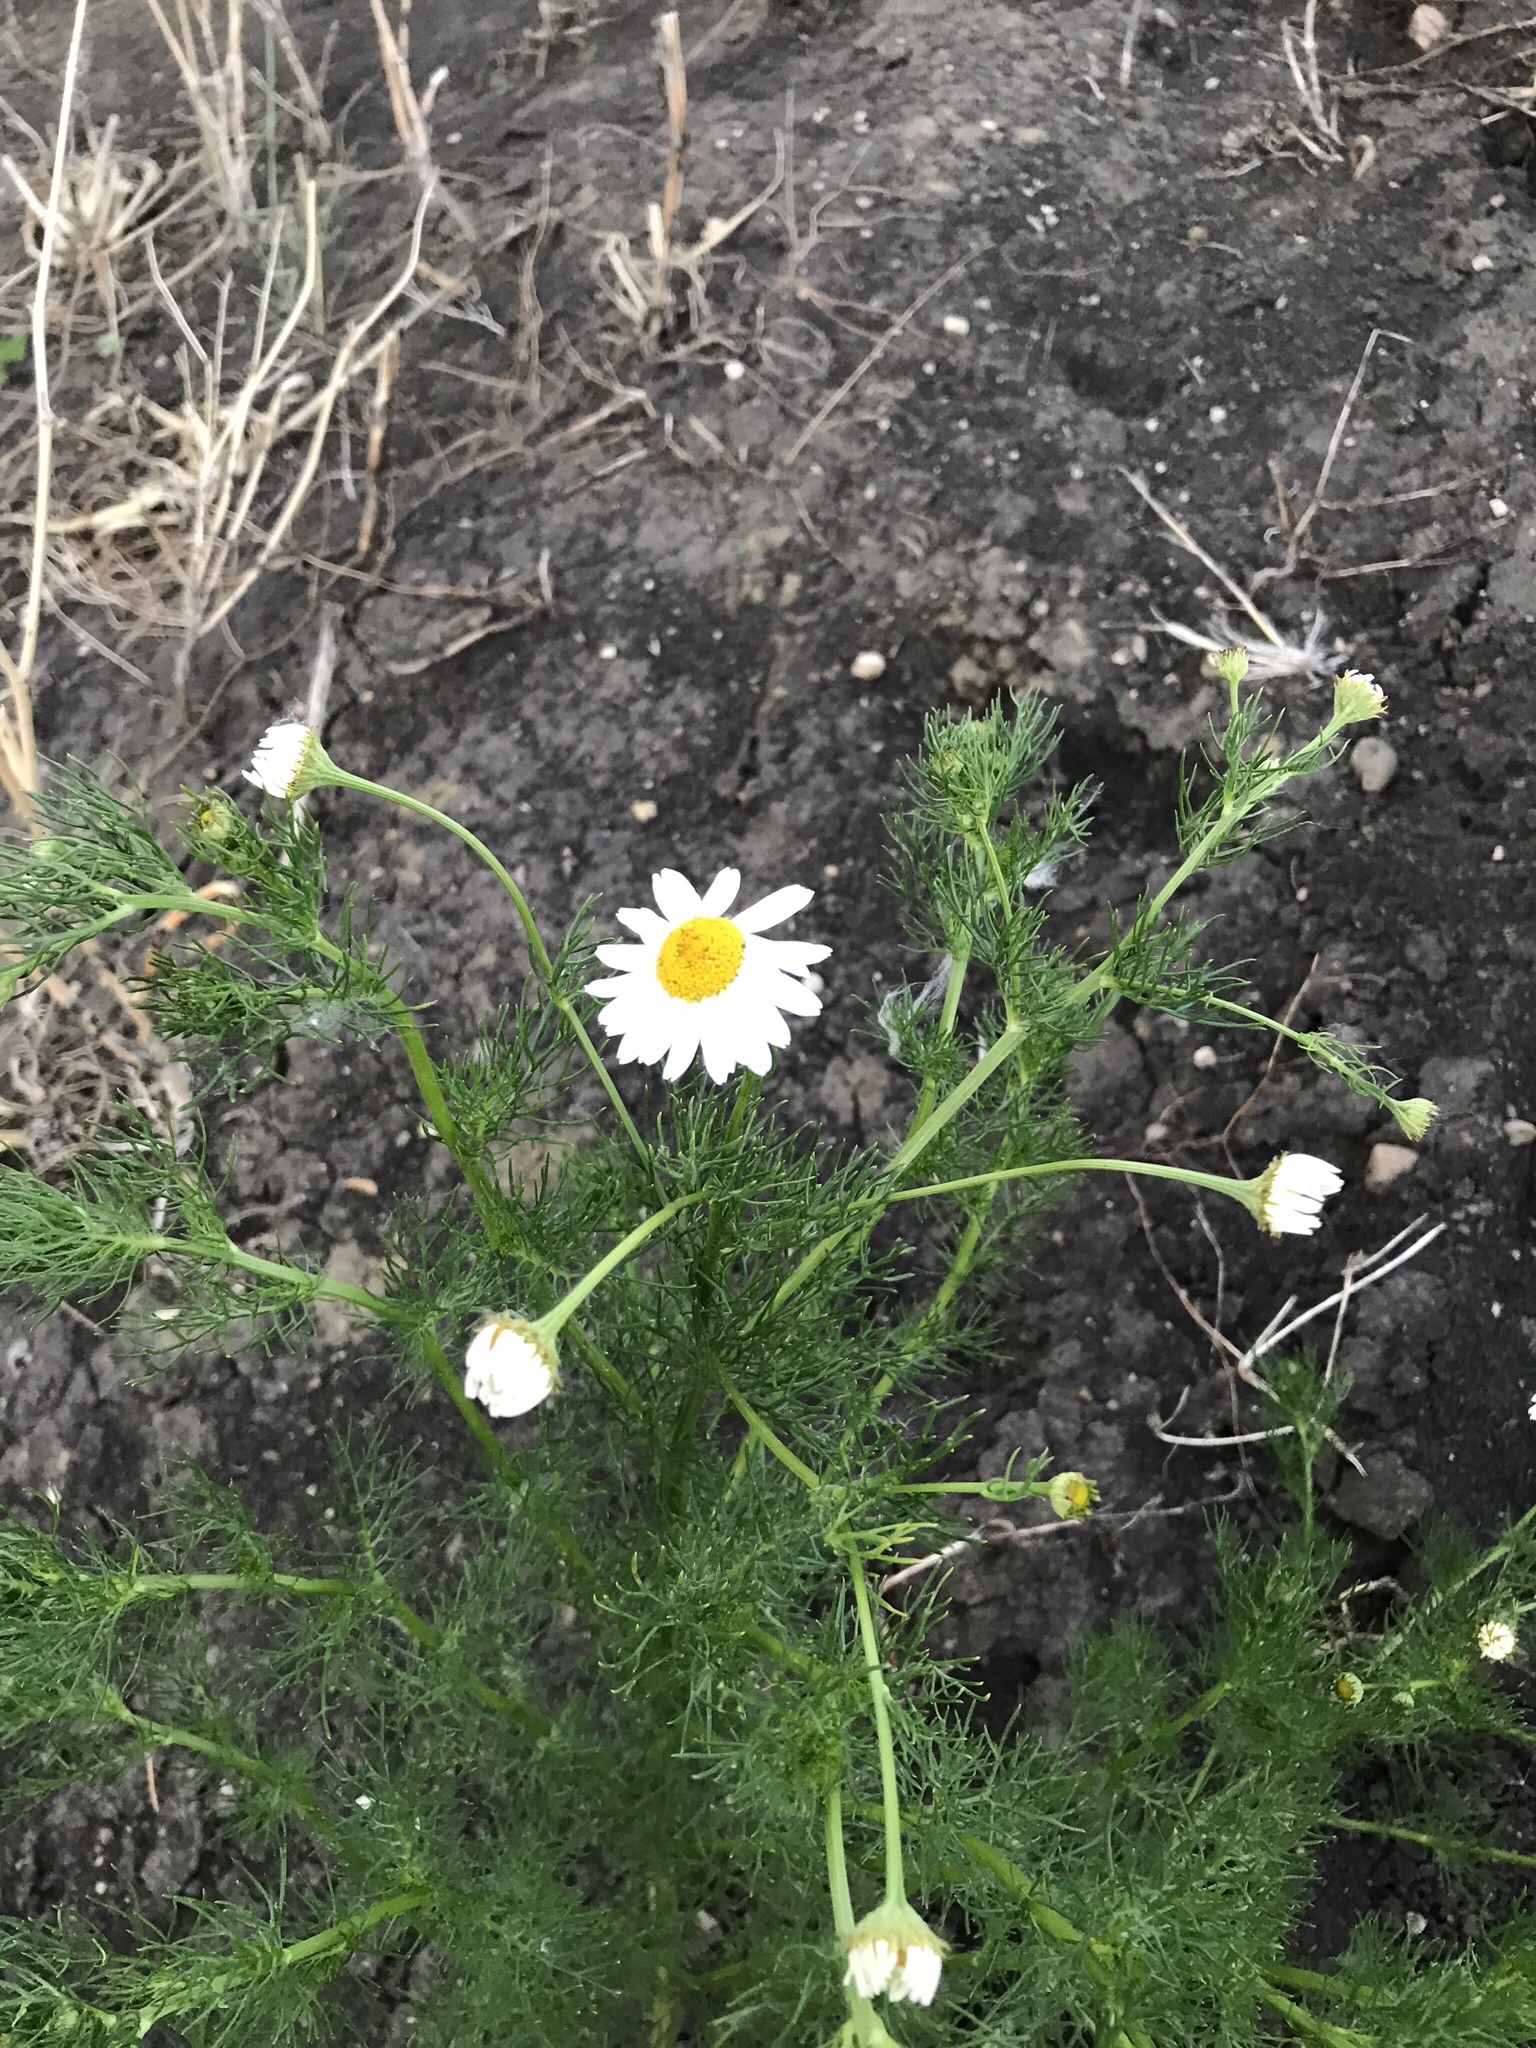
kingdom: Plantae
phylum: Tracheophyta
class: Magnoliopsida
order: Asterales
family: Asteraceae
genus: Tripleurospermum
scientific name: Tripleurospermum inodorum
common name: Scentless mayweed
